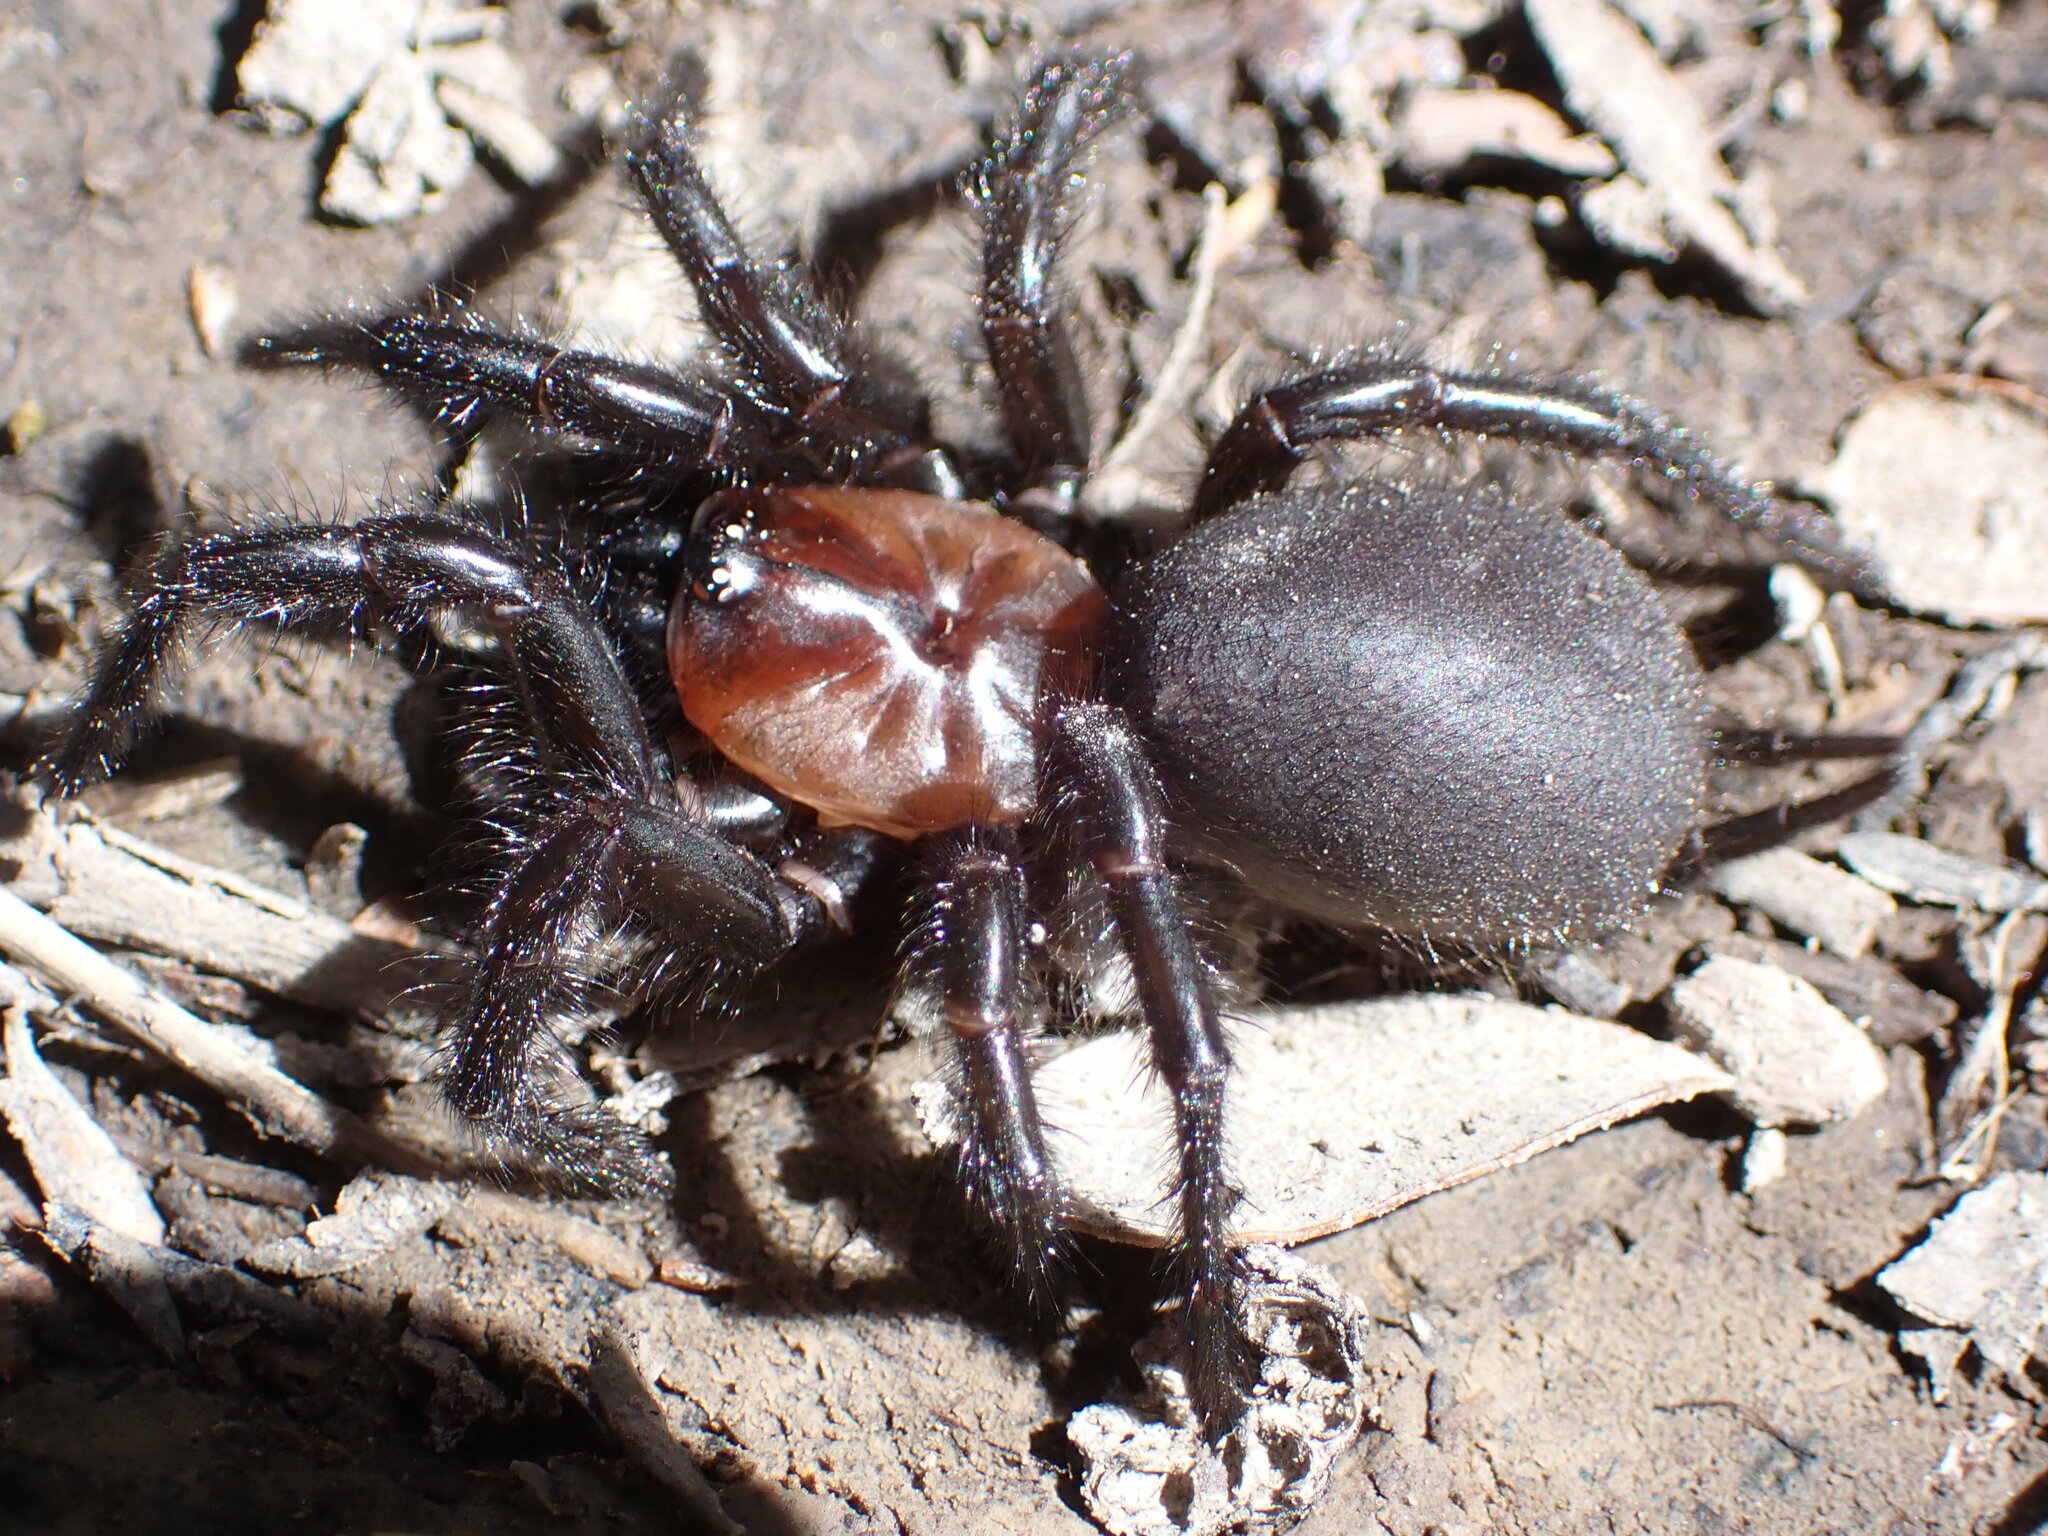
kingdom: Animalia
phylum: Arthropoda
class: Arachnida
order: Araneae
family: Porrhothelidae
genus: Porrhothele
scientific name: Porrhothele antipodiana
